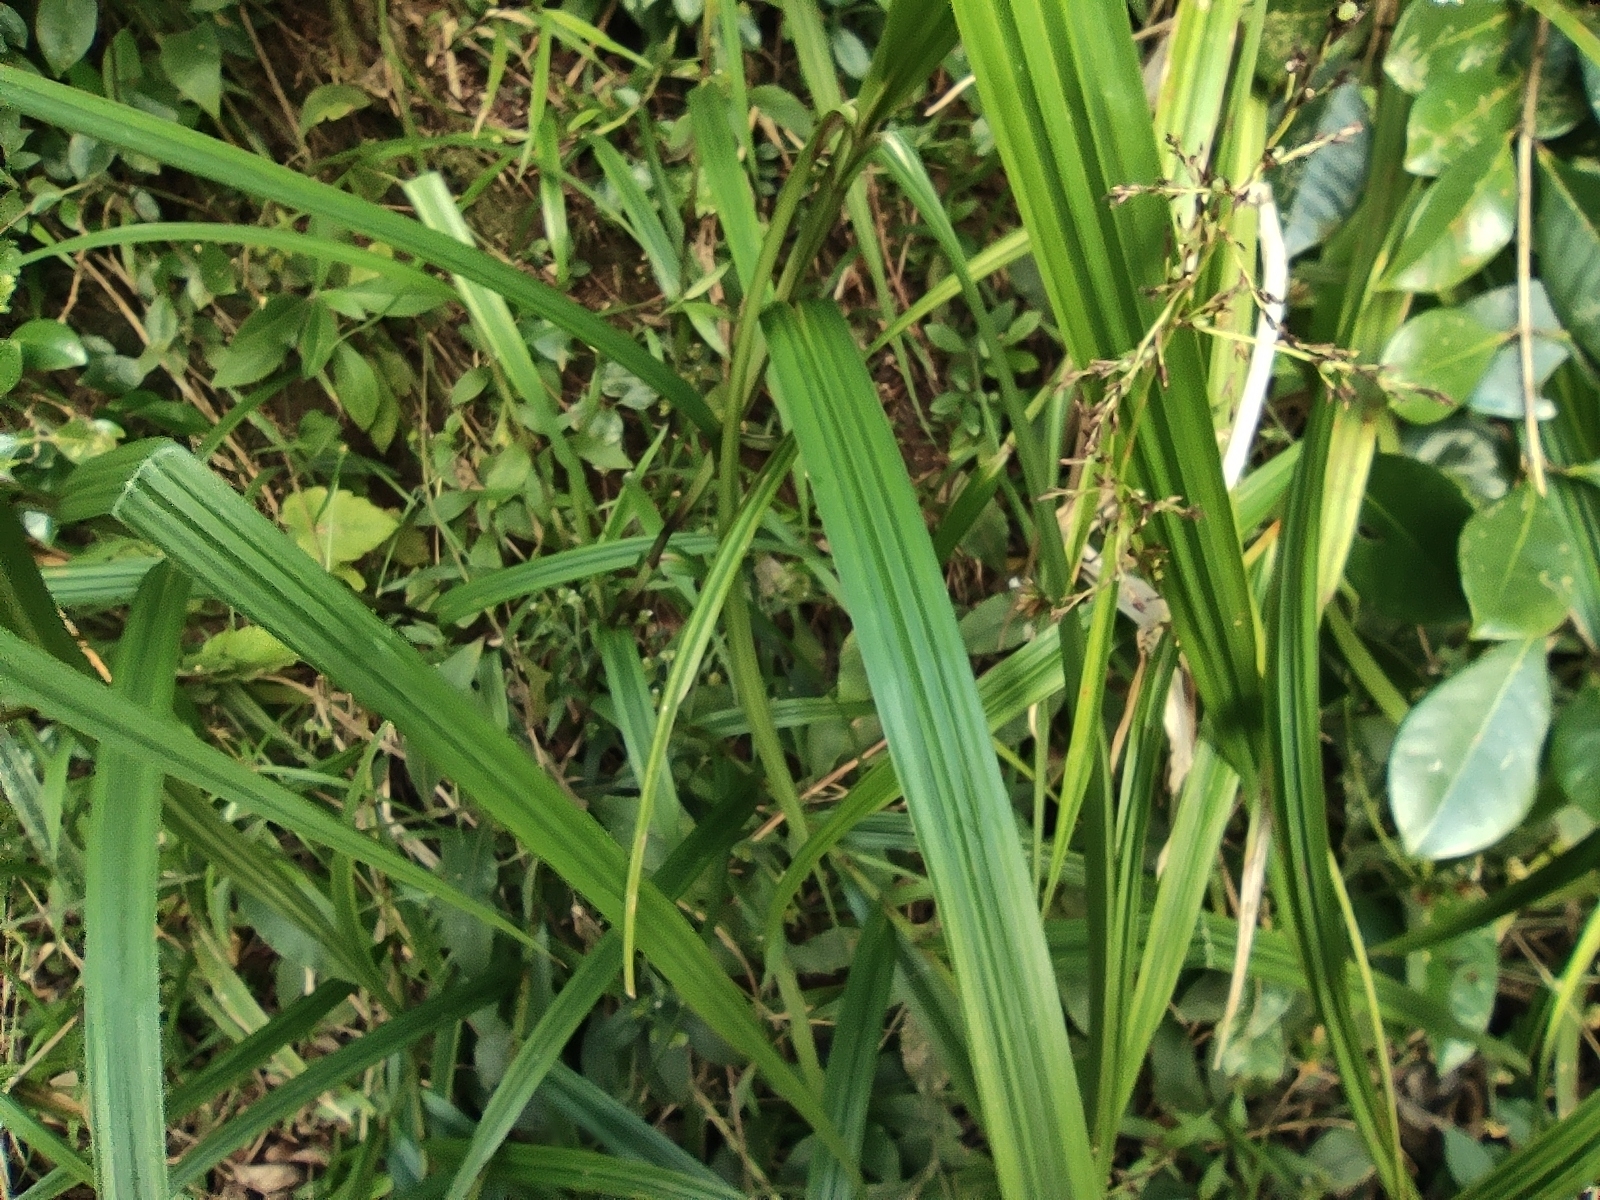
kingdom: Plantae
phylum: Tracheophyta
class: Liliopsida
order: Poales
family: Cyperaceae
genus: Scleria
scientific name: Scleria gaertneri
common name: Cortadera blanca
